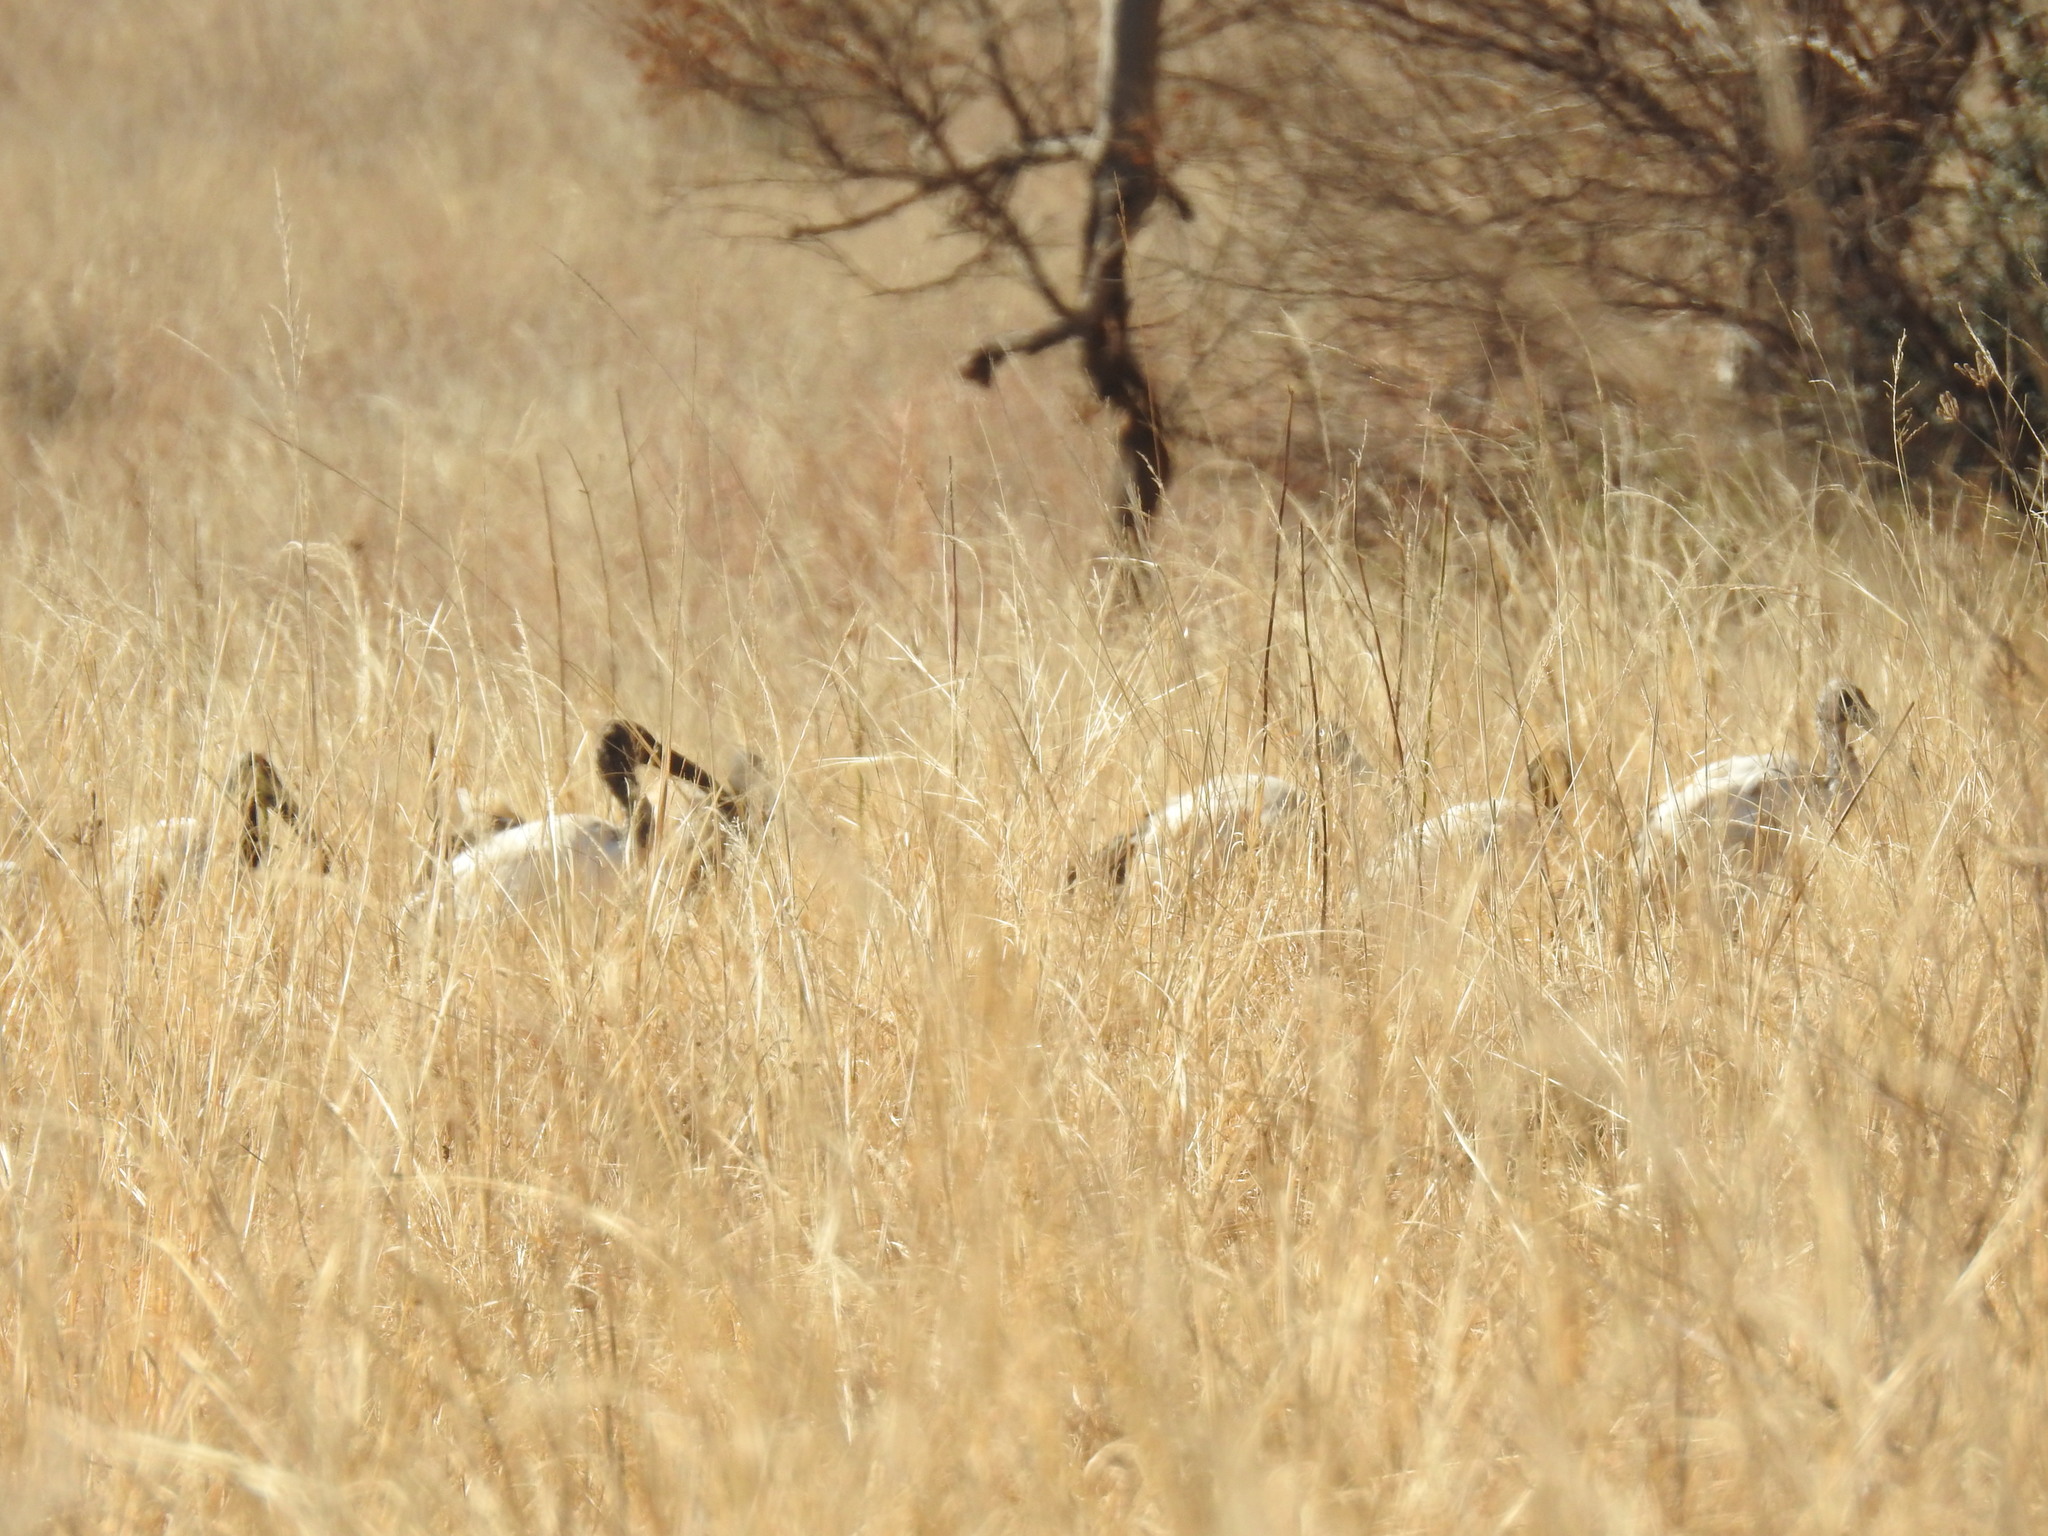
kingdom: Animalia
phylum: Chordata
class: Aves
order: Pelecaniformes
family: Threskiornithidae
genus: Threskiornis
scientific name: Threskiornis aethiopicus
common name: Sacred ibis
